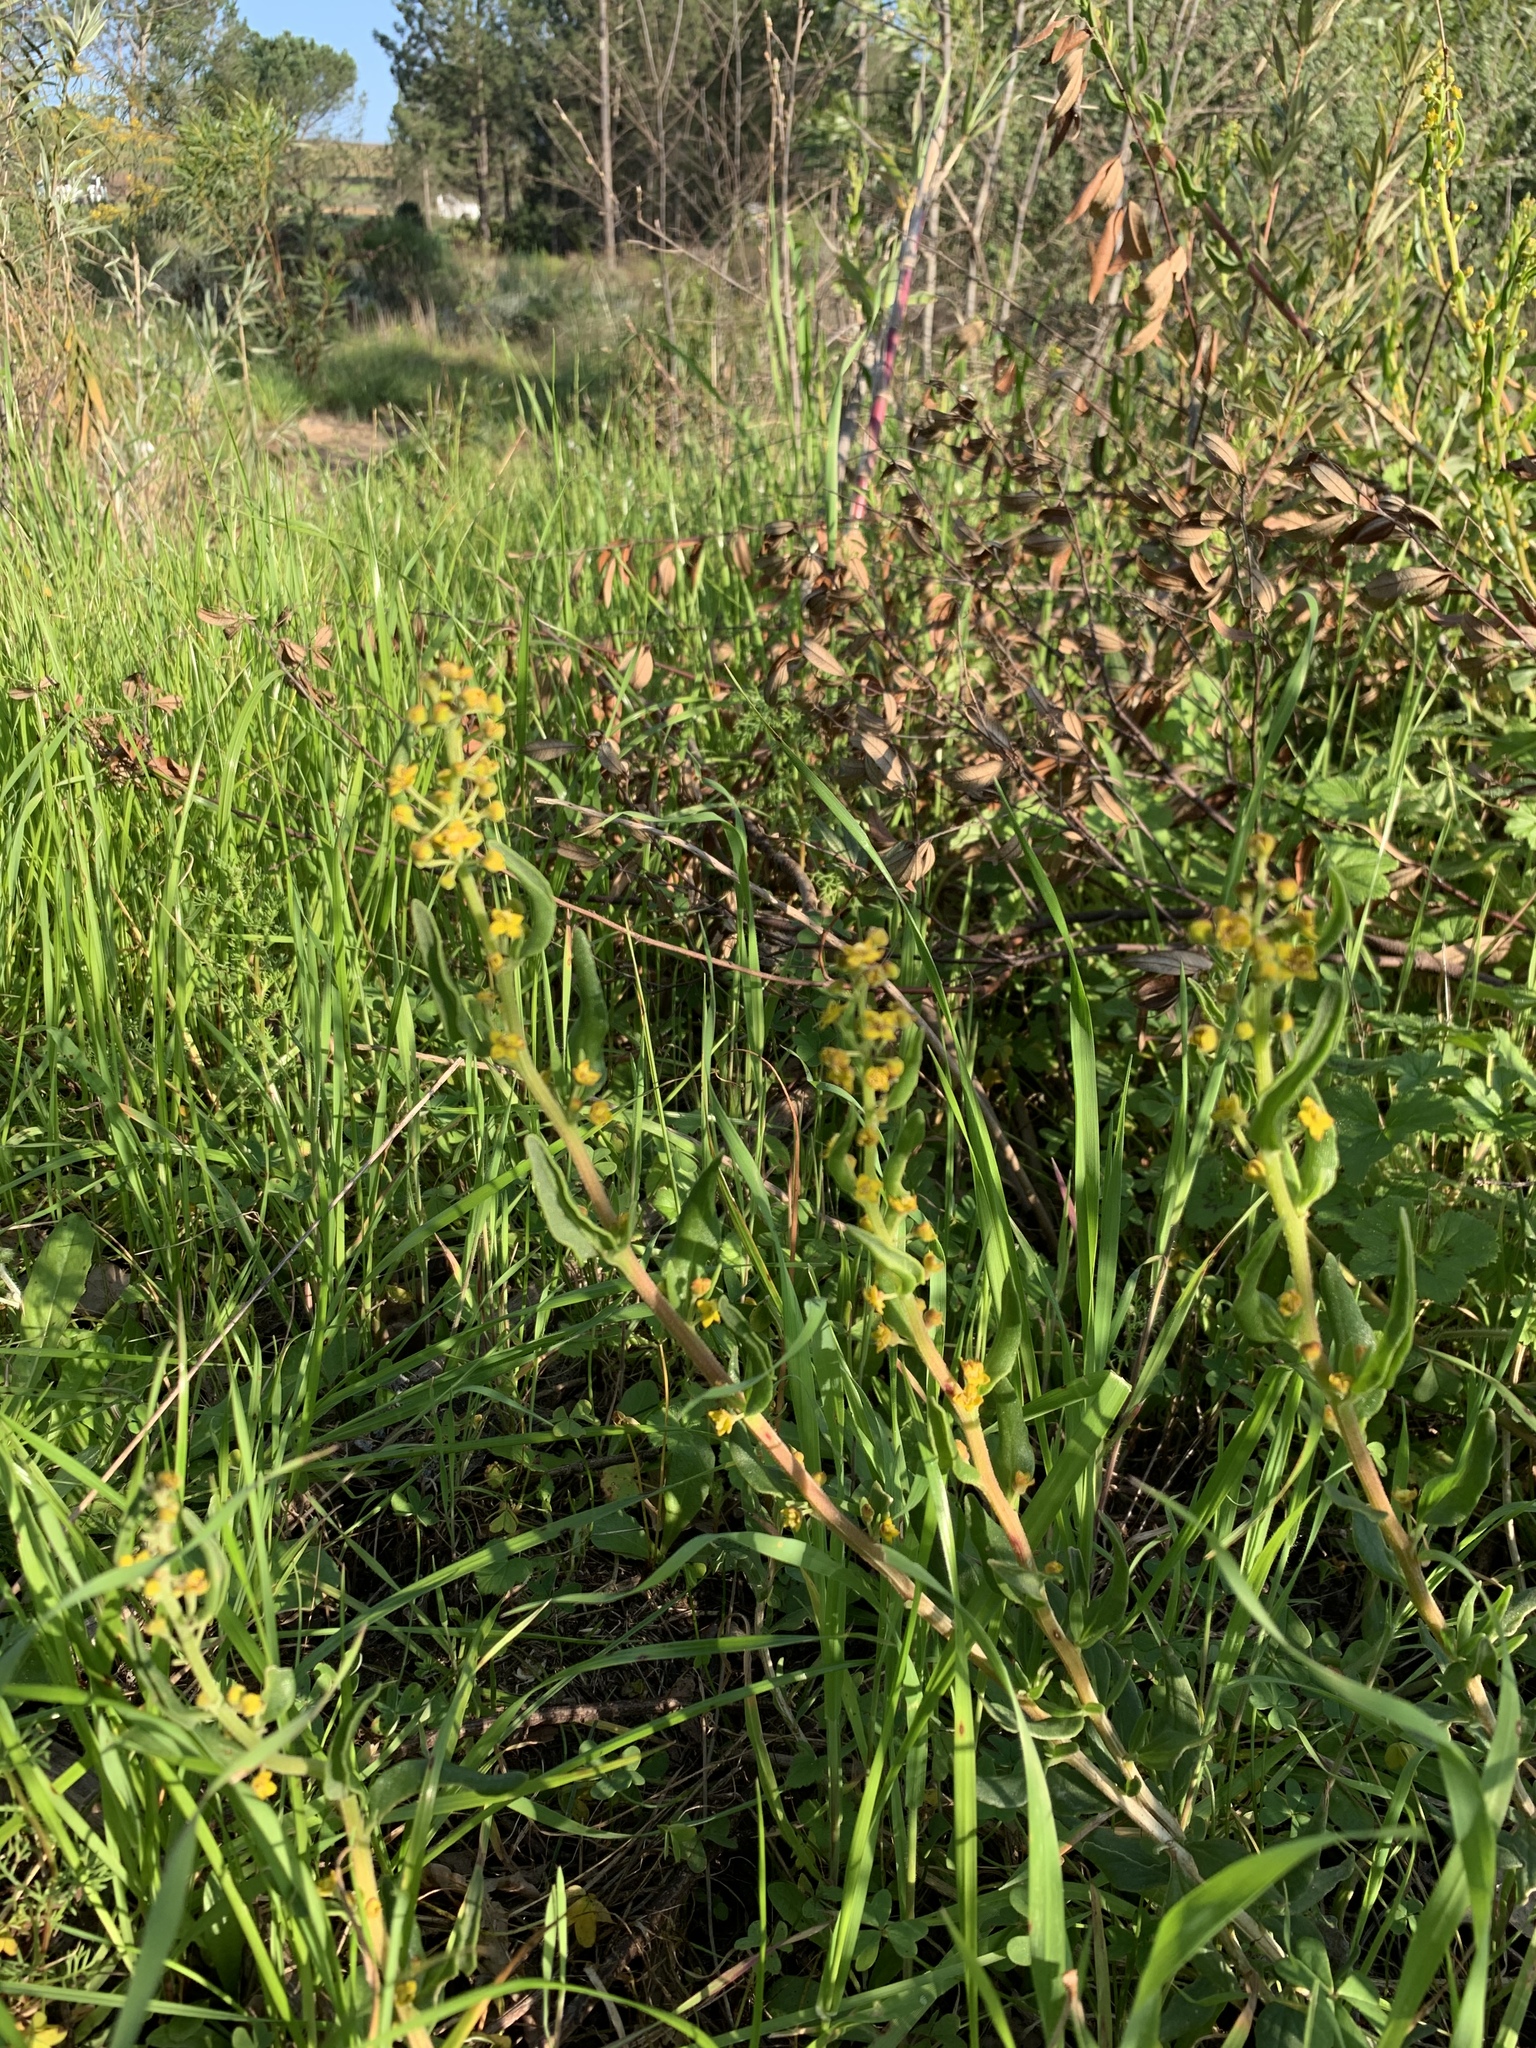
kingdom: Plantae
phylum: Tracheophyta
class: Magnoliopsida
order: Caryophyllales
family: Aizoaceae
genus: Tetragonia
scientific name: Tetragonia fruticosa
